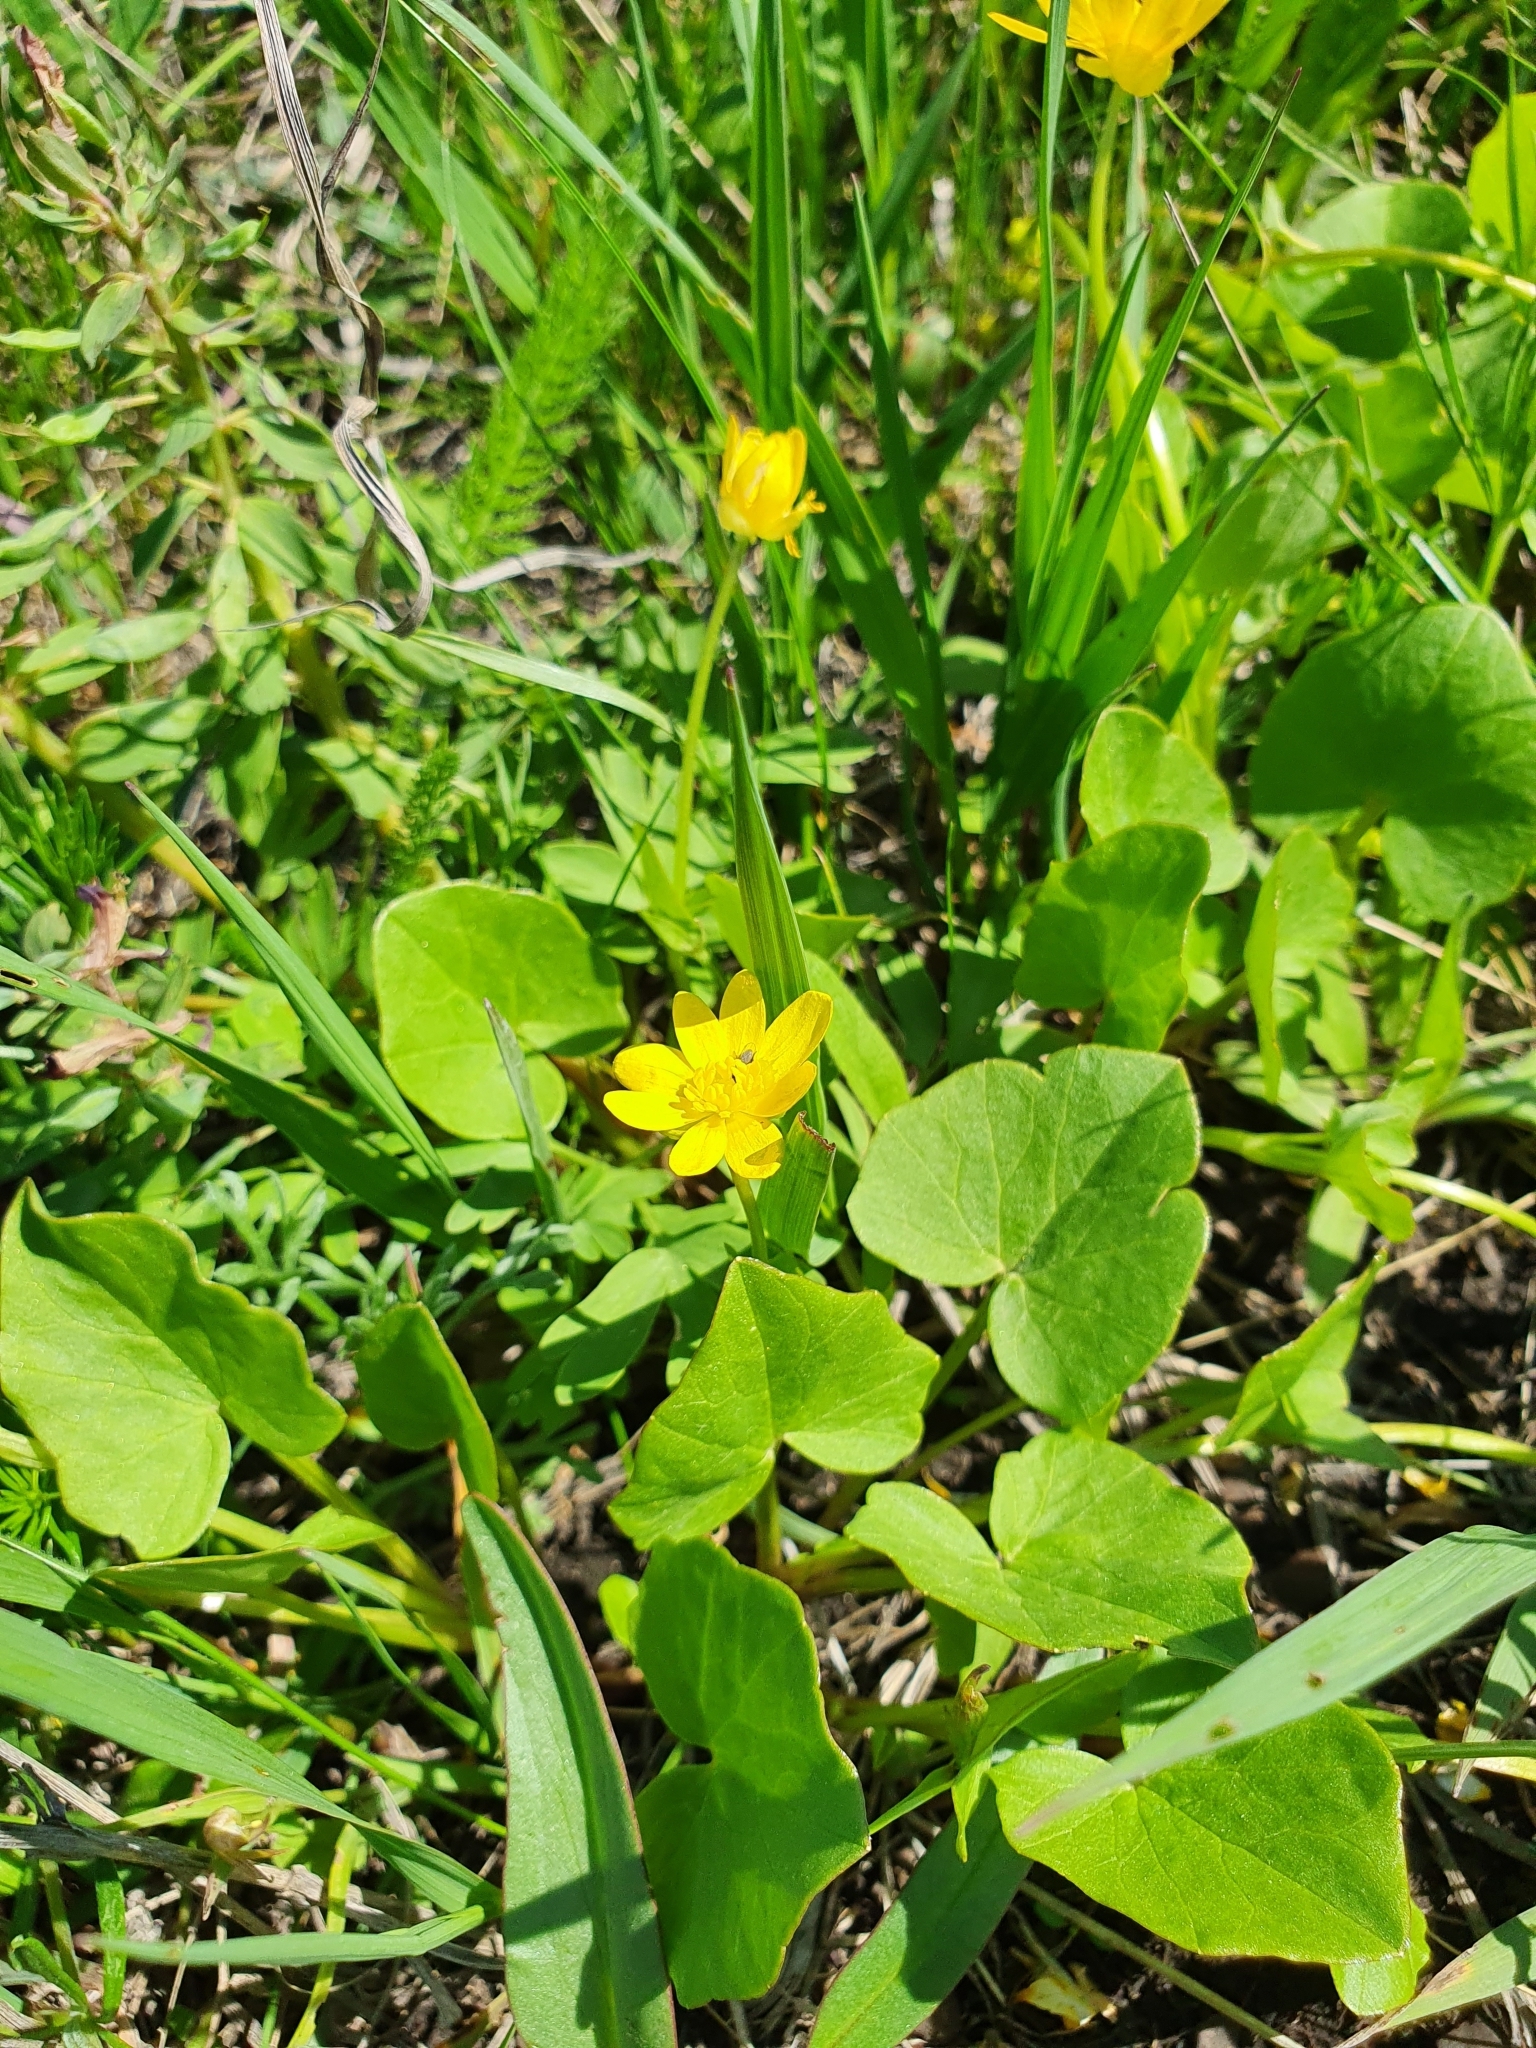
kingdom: Plantae
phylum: Tracheophyta
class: Magnoliopsida
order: Ranunculales
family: Ranunculaceae
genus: Ficaria
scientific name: Ficaria
